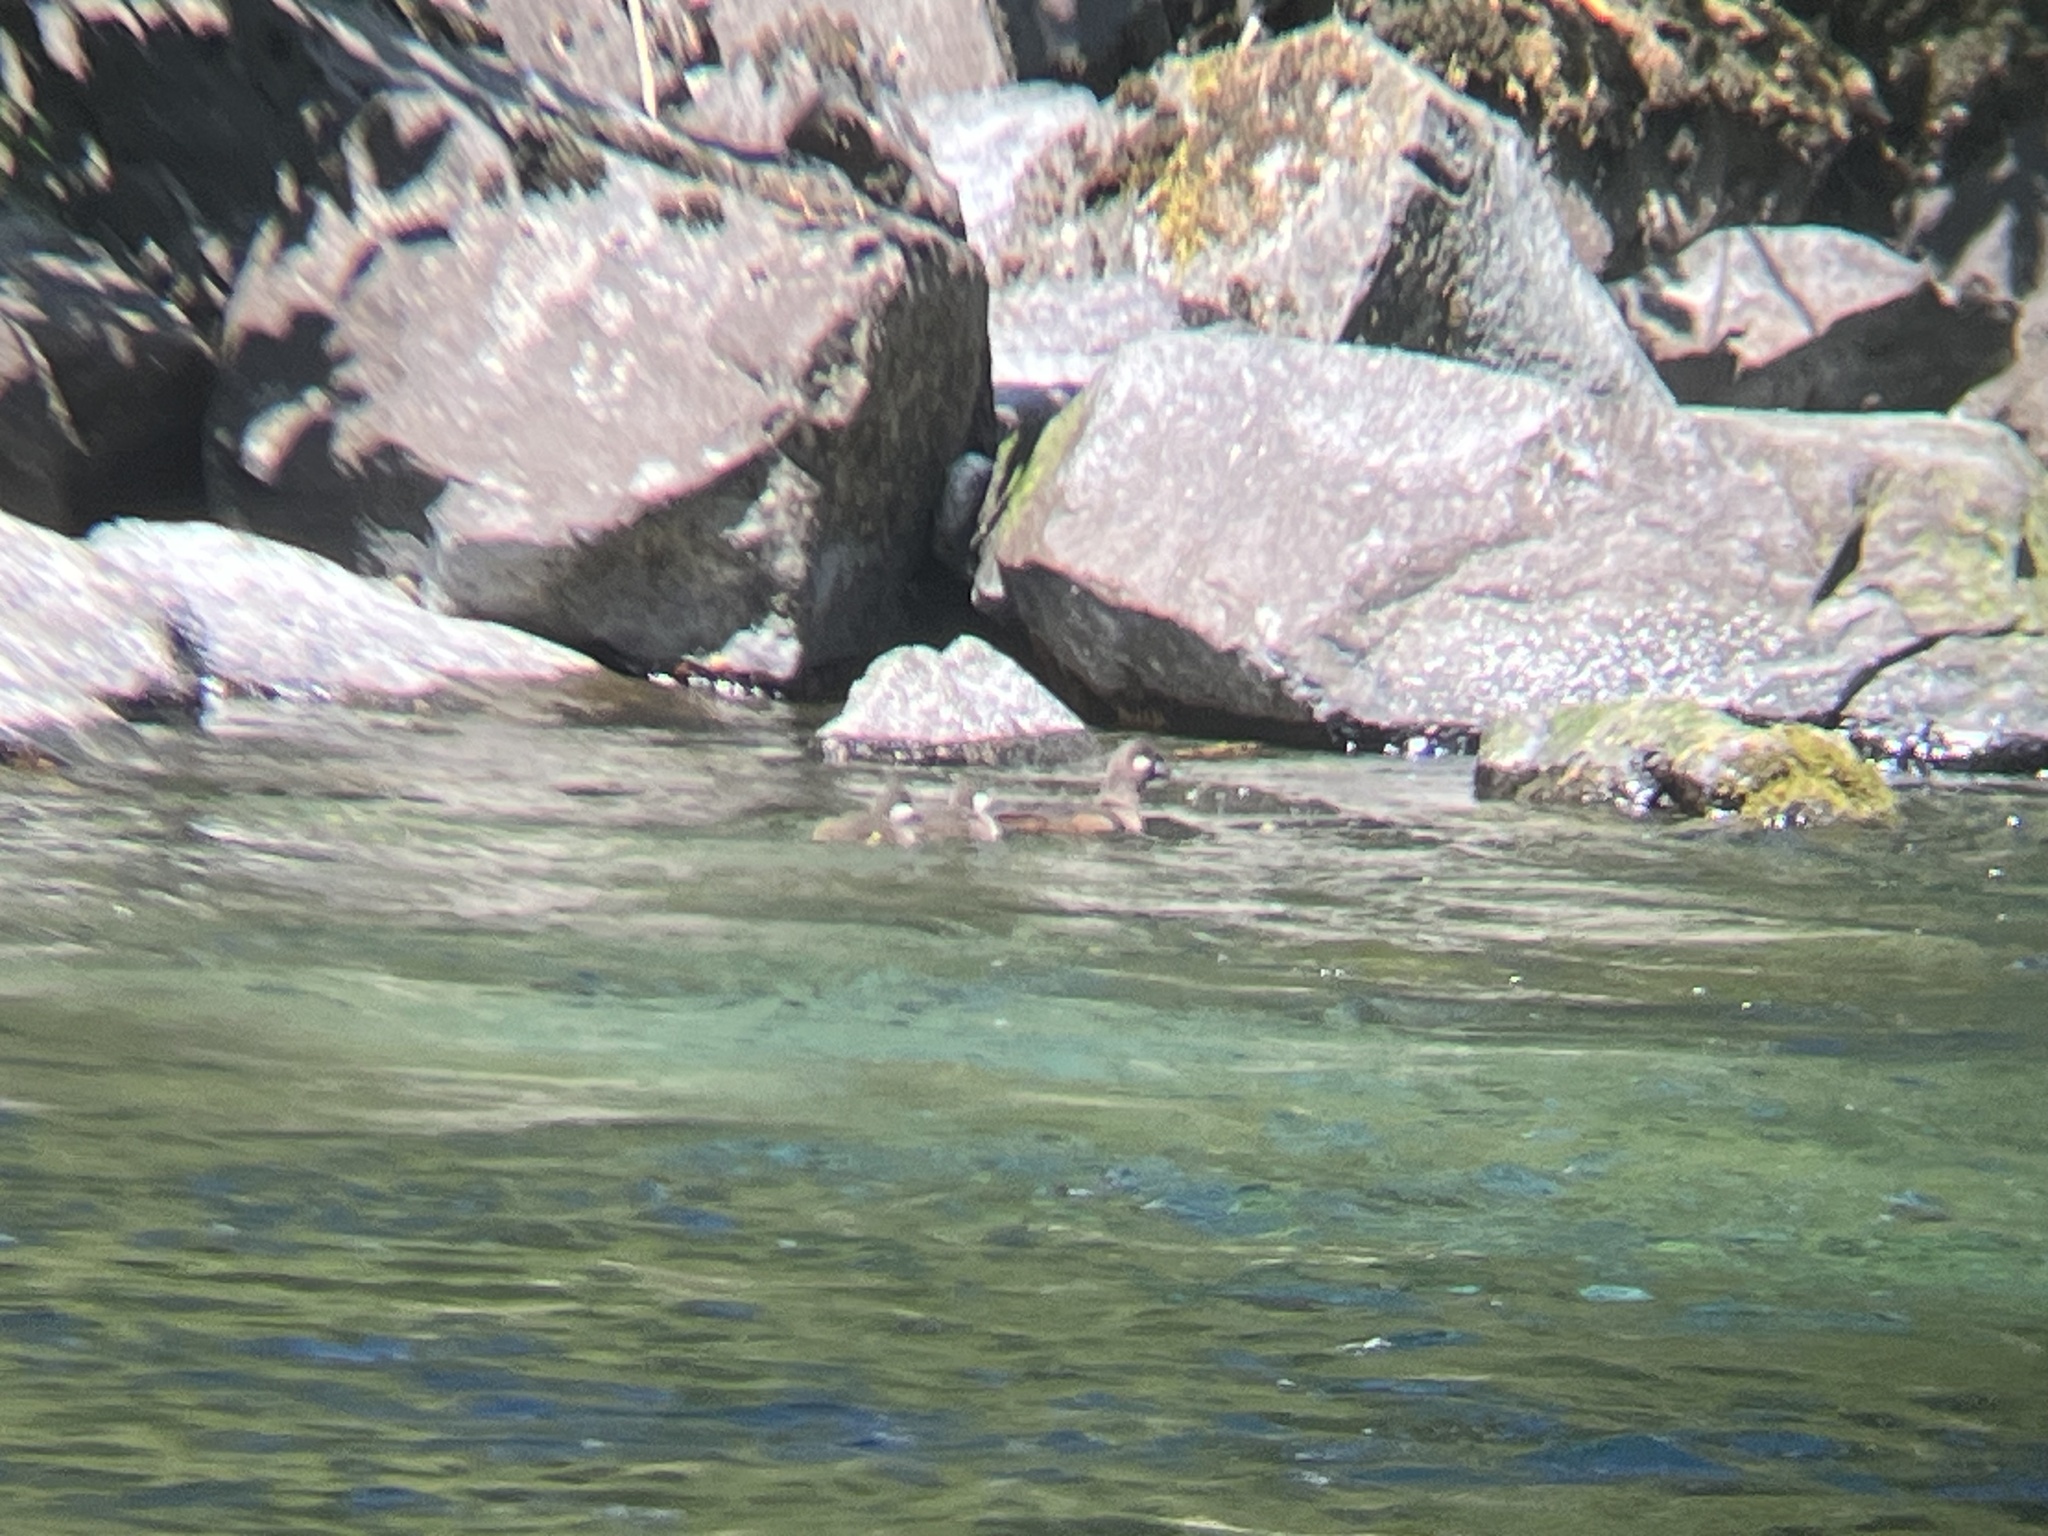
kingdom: Animalia
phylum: Chordata
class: Aves
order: Anseriformes
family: Anatidae
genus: Histrionicus
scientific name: Histrionicus histrionicus
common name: Harlequin duck
